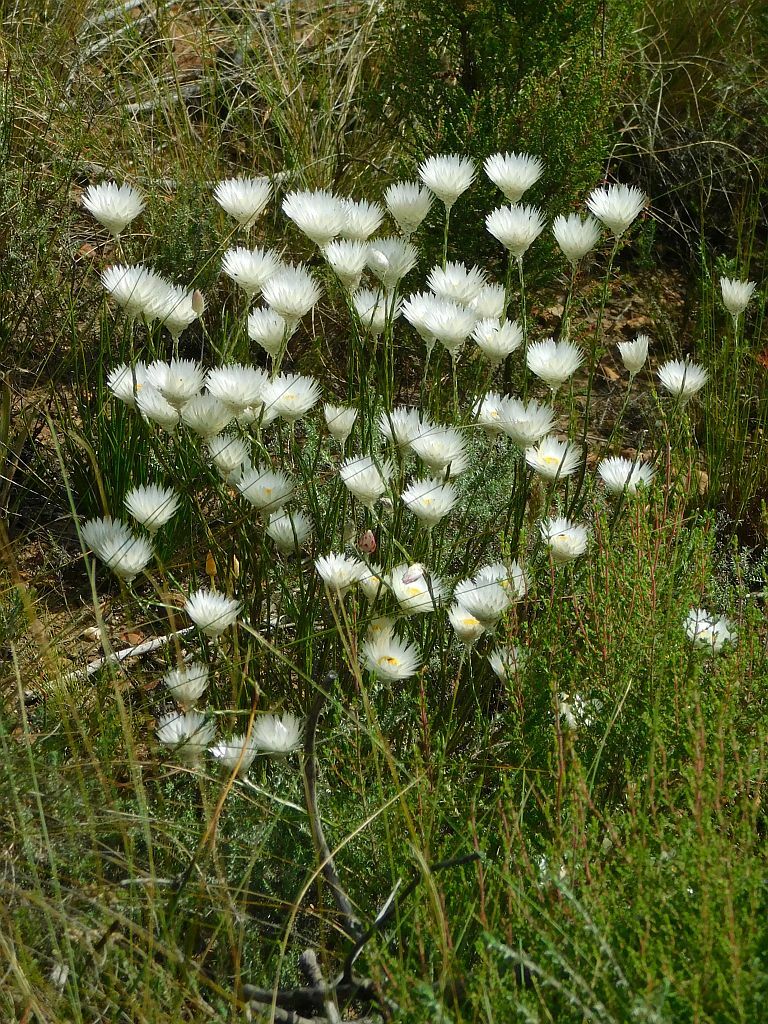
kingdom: Plantae
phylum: Tracheophyta
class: Magnoliopsida
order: Asterales
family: Asteraceae
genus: Edmondia
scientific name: Edmondia sesamoides
